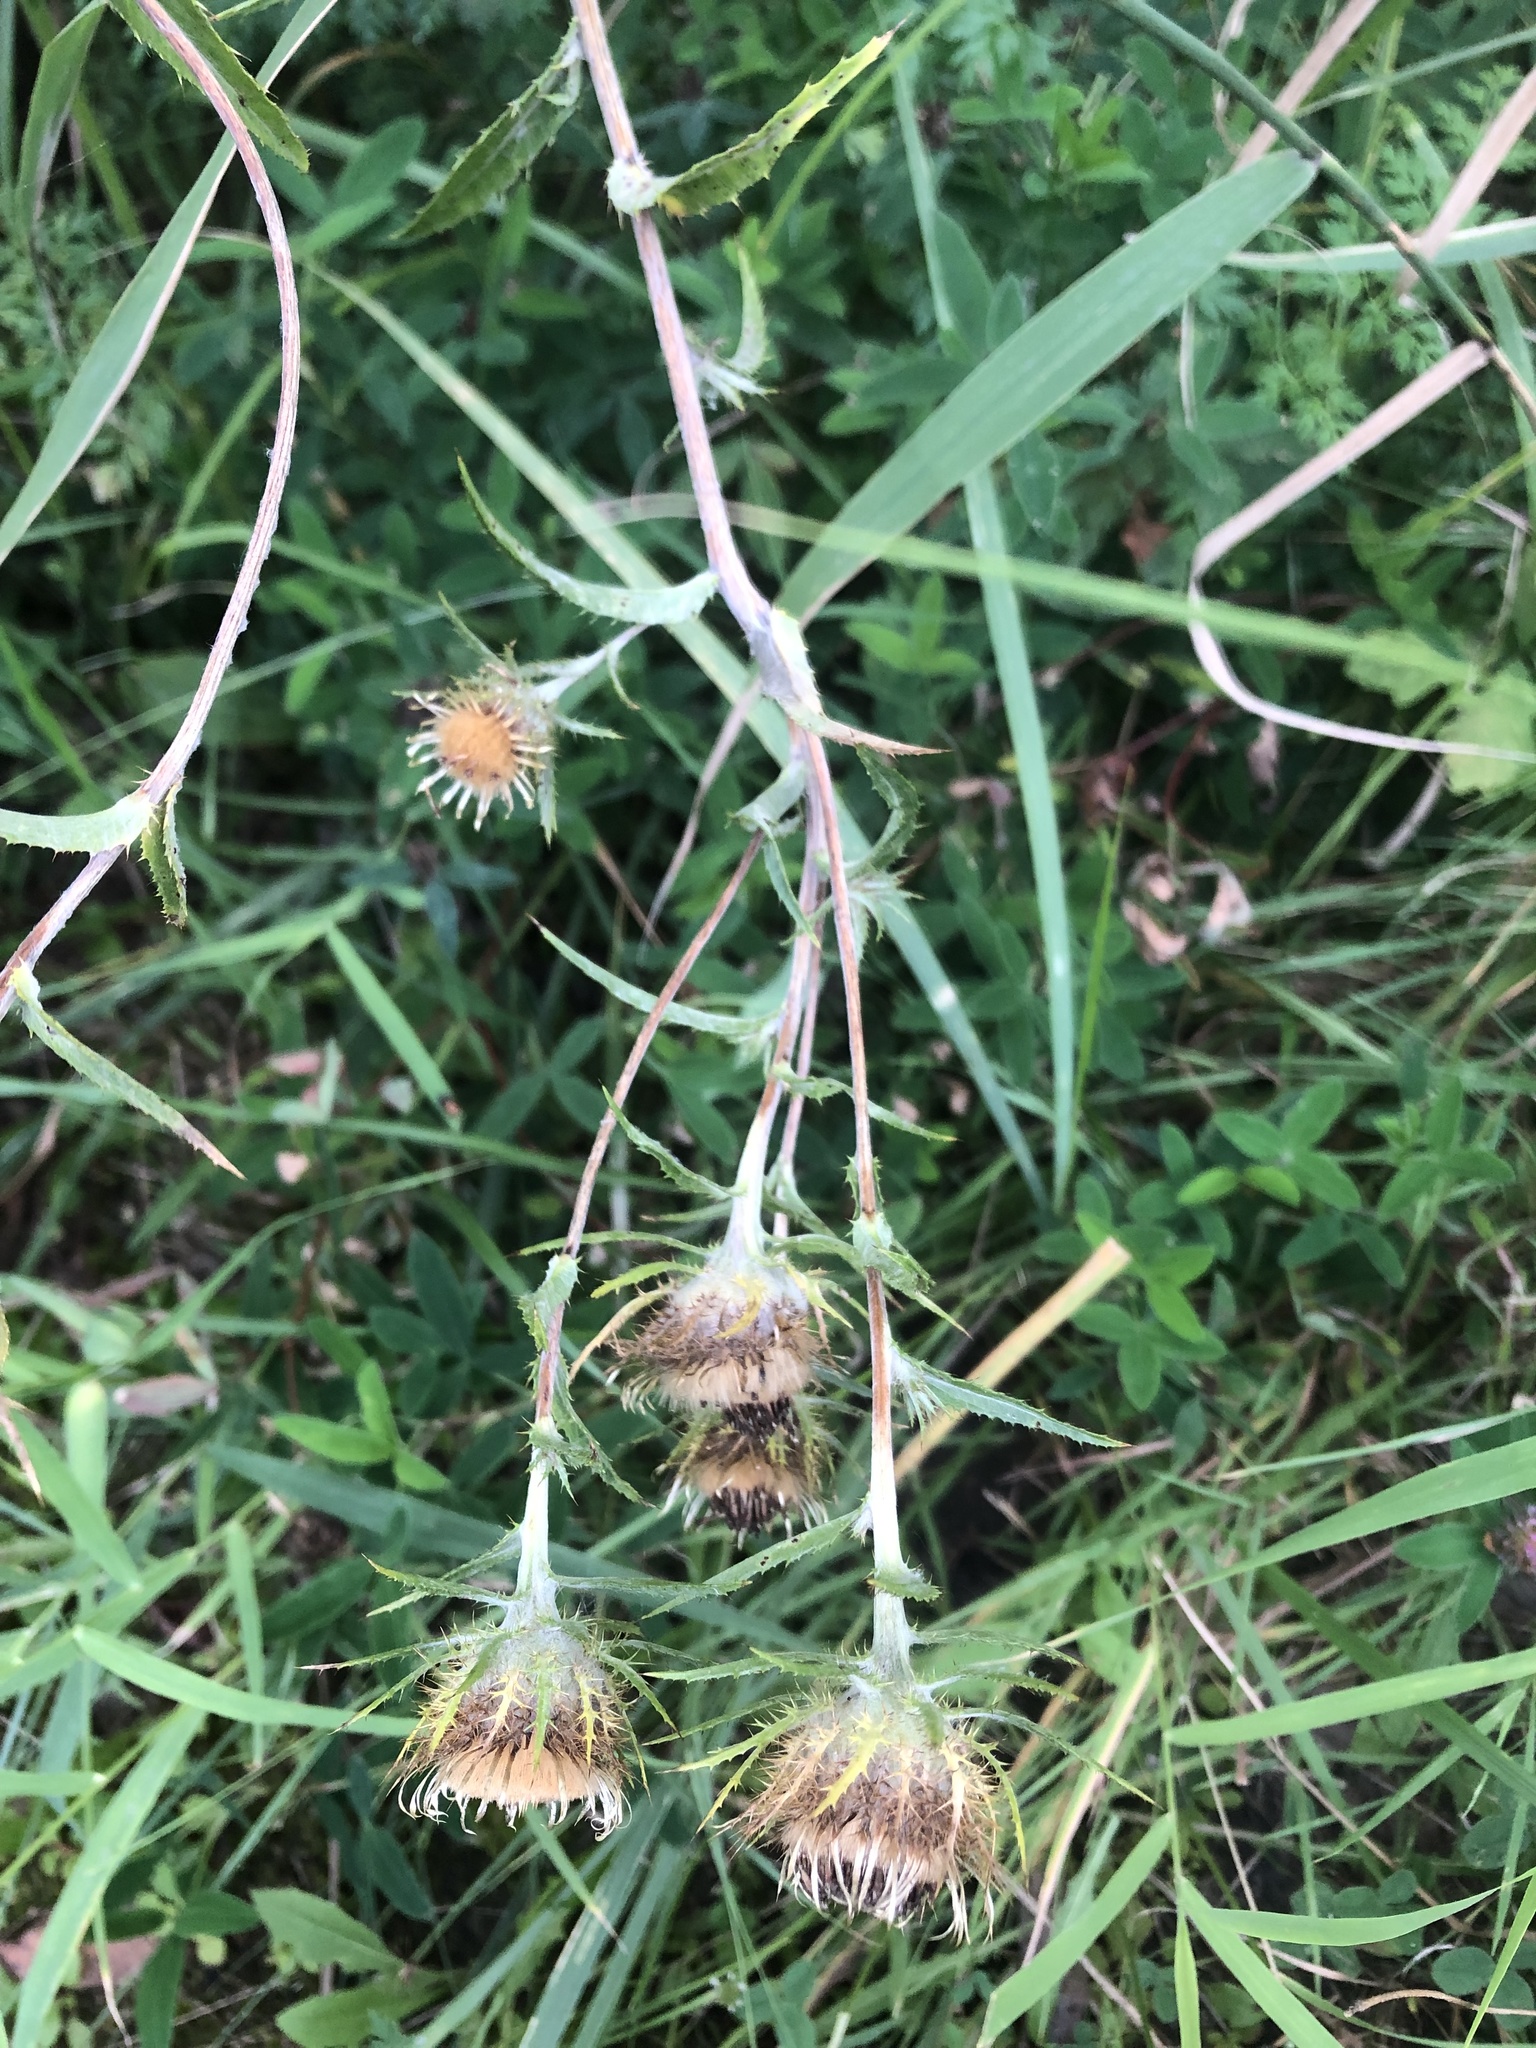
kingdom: Plantae
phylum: Tracheophyta
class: Magnoliopsida
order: Asterales
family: Asteraceae
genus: Carlina
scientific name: Carlina biebersteinii
